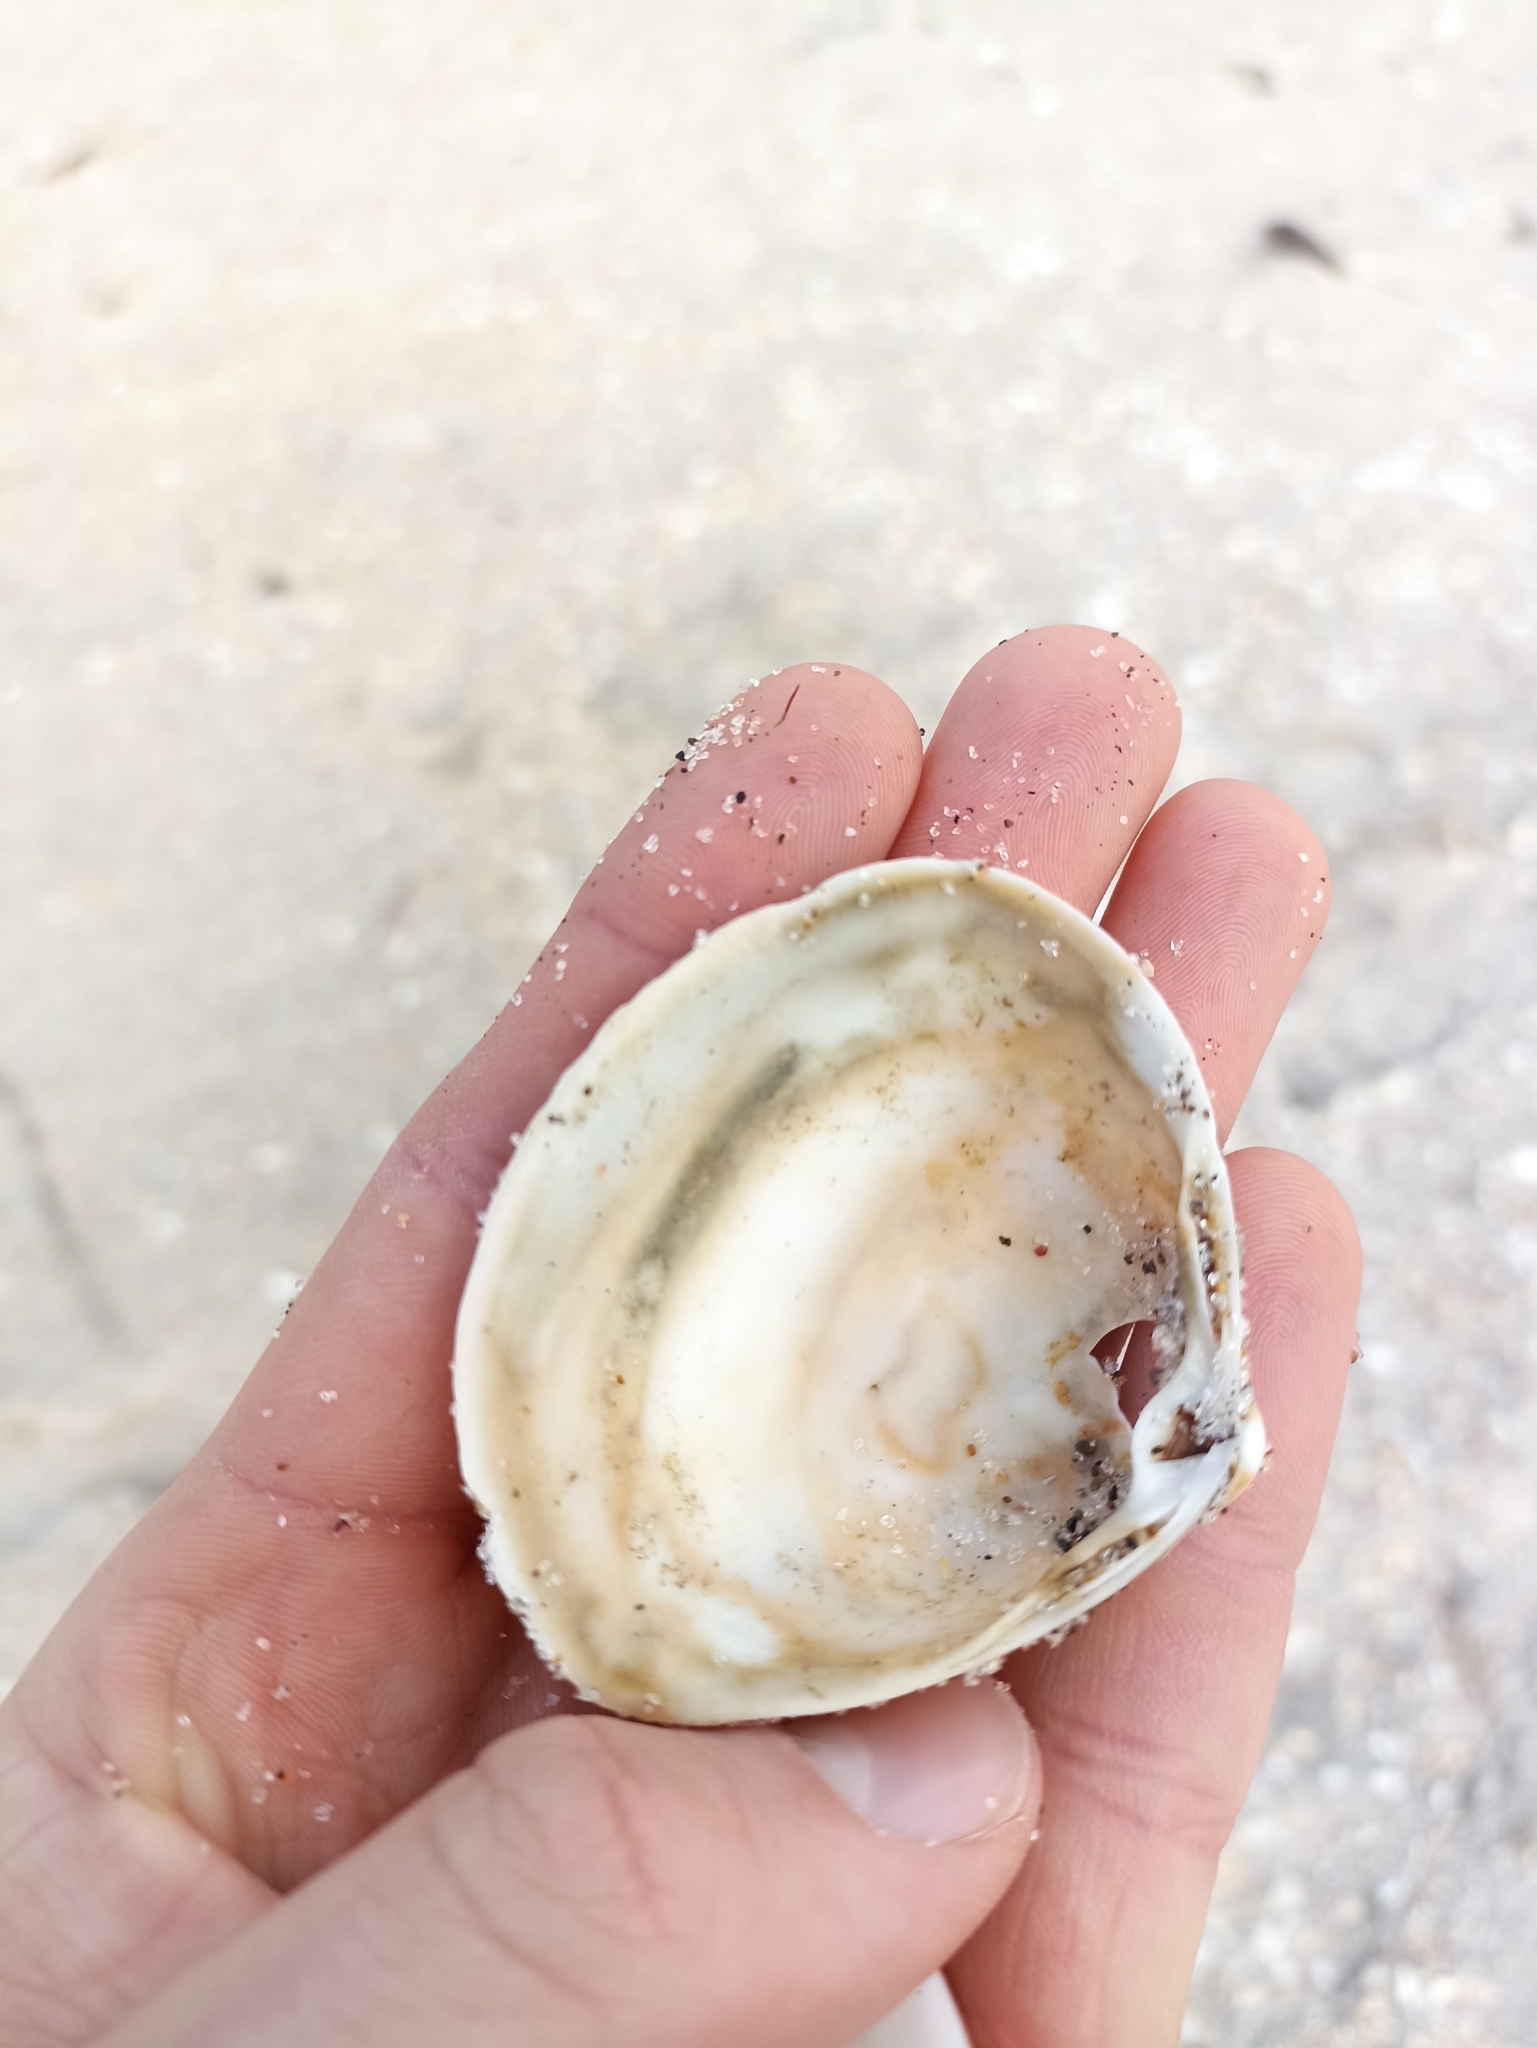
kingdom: Animalia
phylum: Mollusca
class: Bivalvia
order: Venerida
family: Mactridae
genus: Spisula
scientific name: Spisula murchisoni
